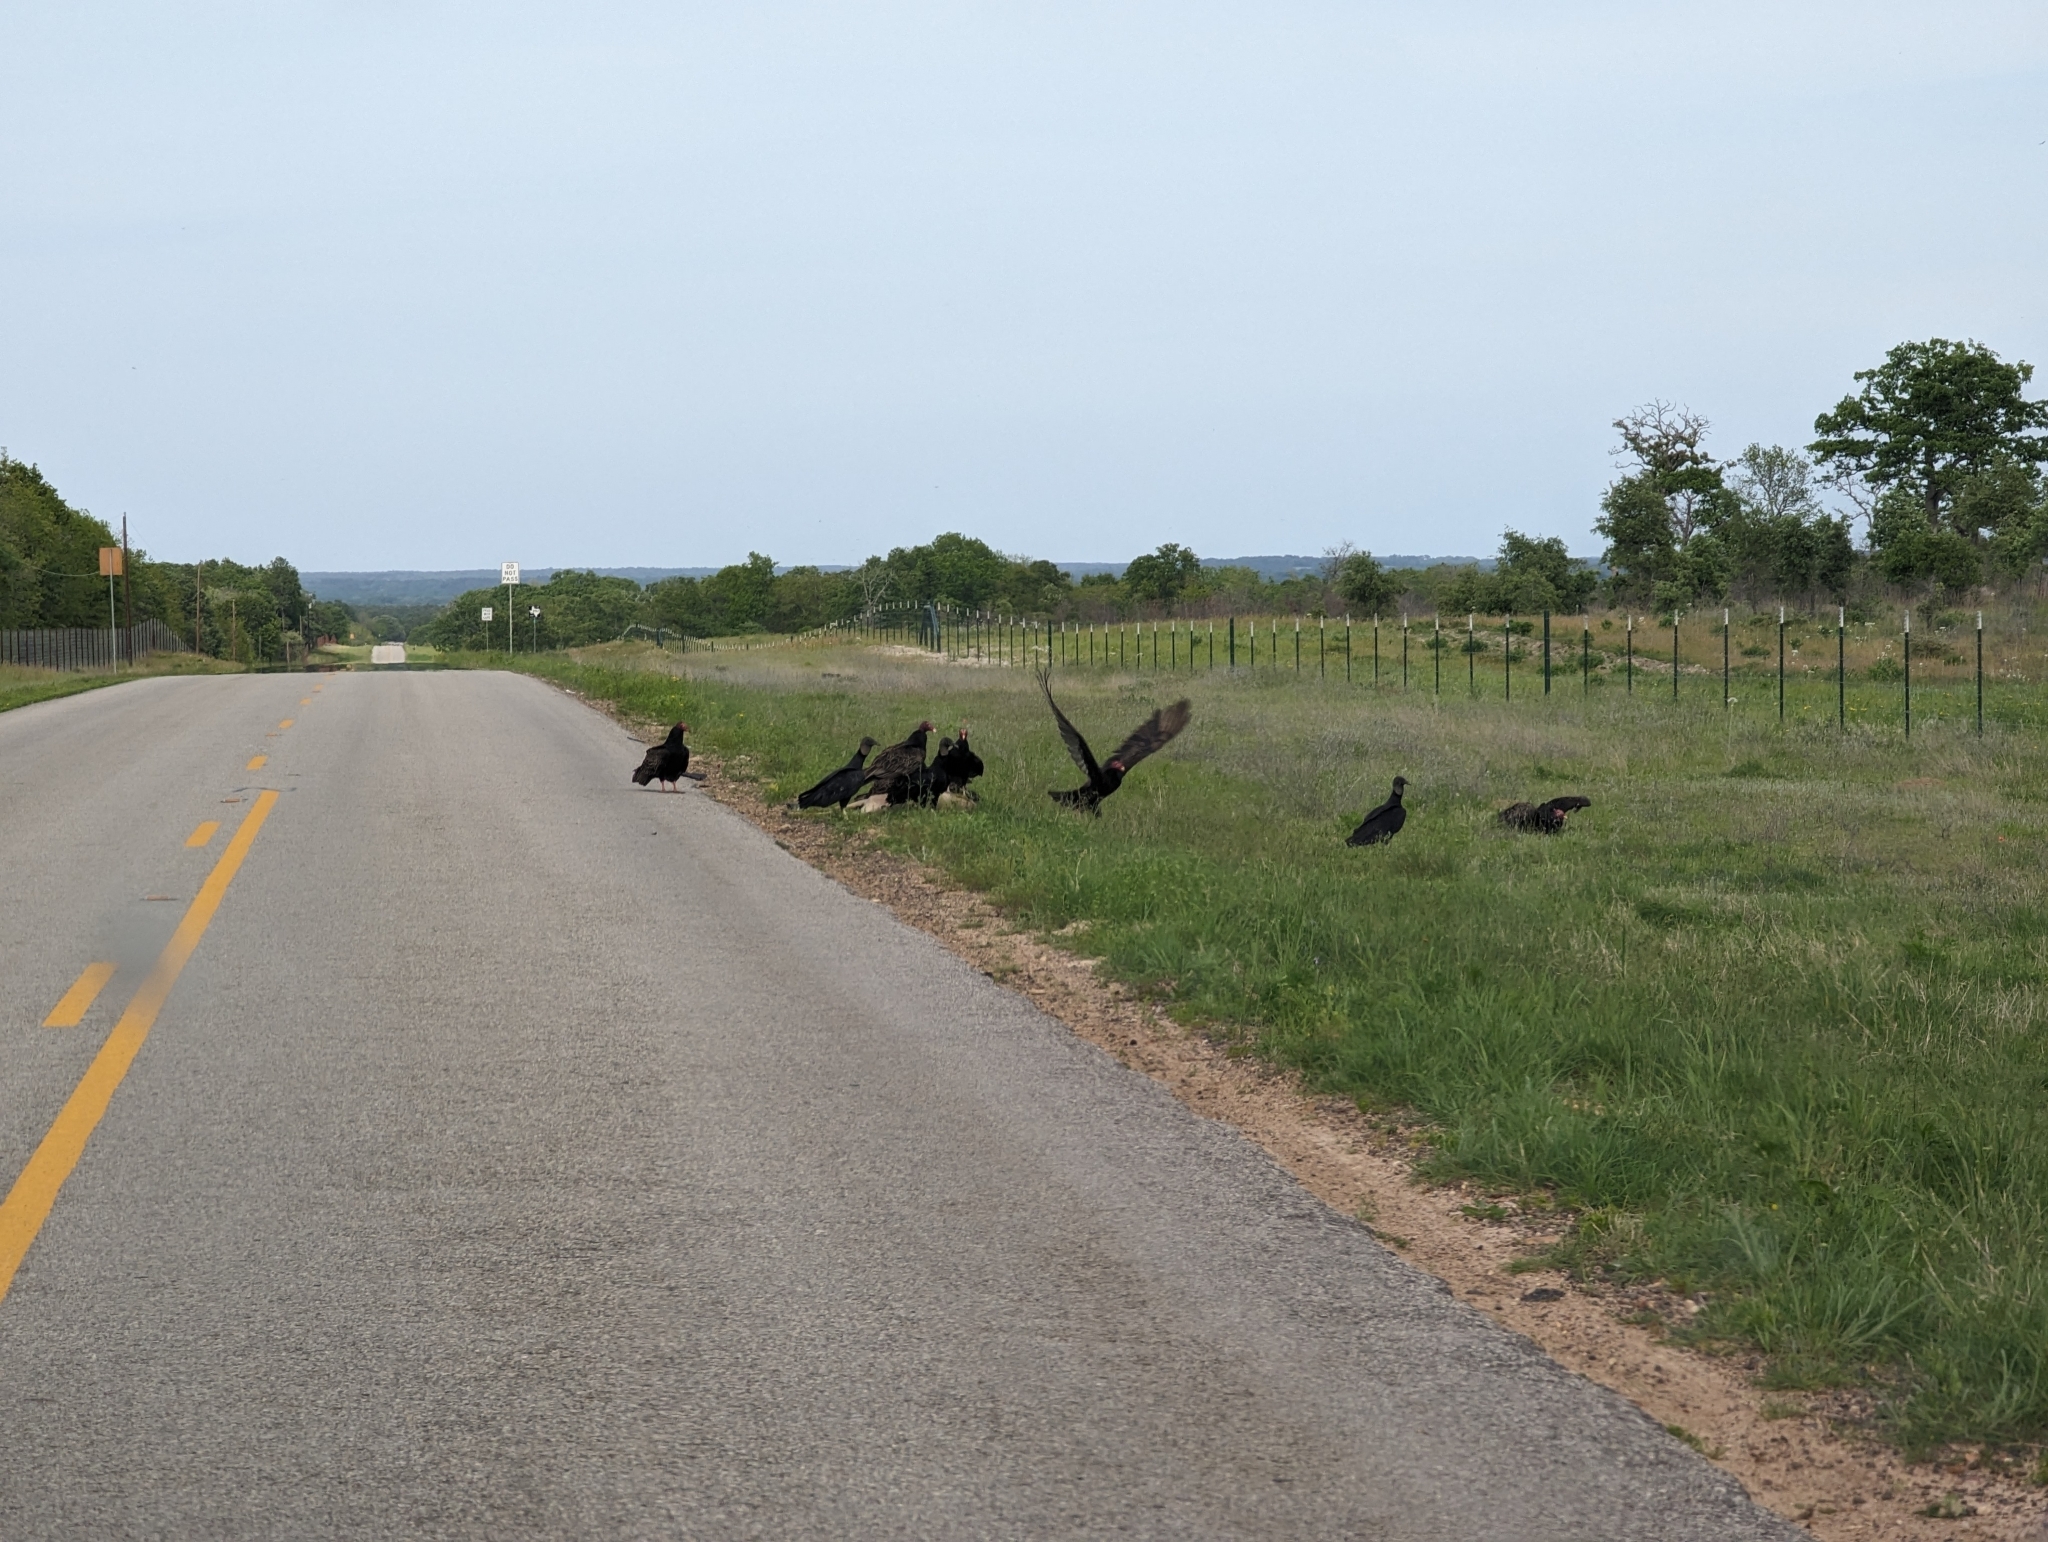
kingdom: Animalia
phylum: Chordata
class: Aves
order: Accipitriformes
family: Cathartidae
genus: Coragyps
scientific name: Coragyps atratus
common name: Black vulture
